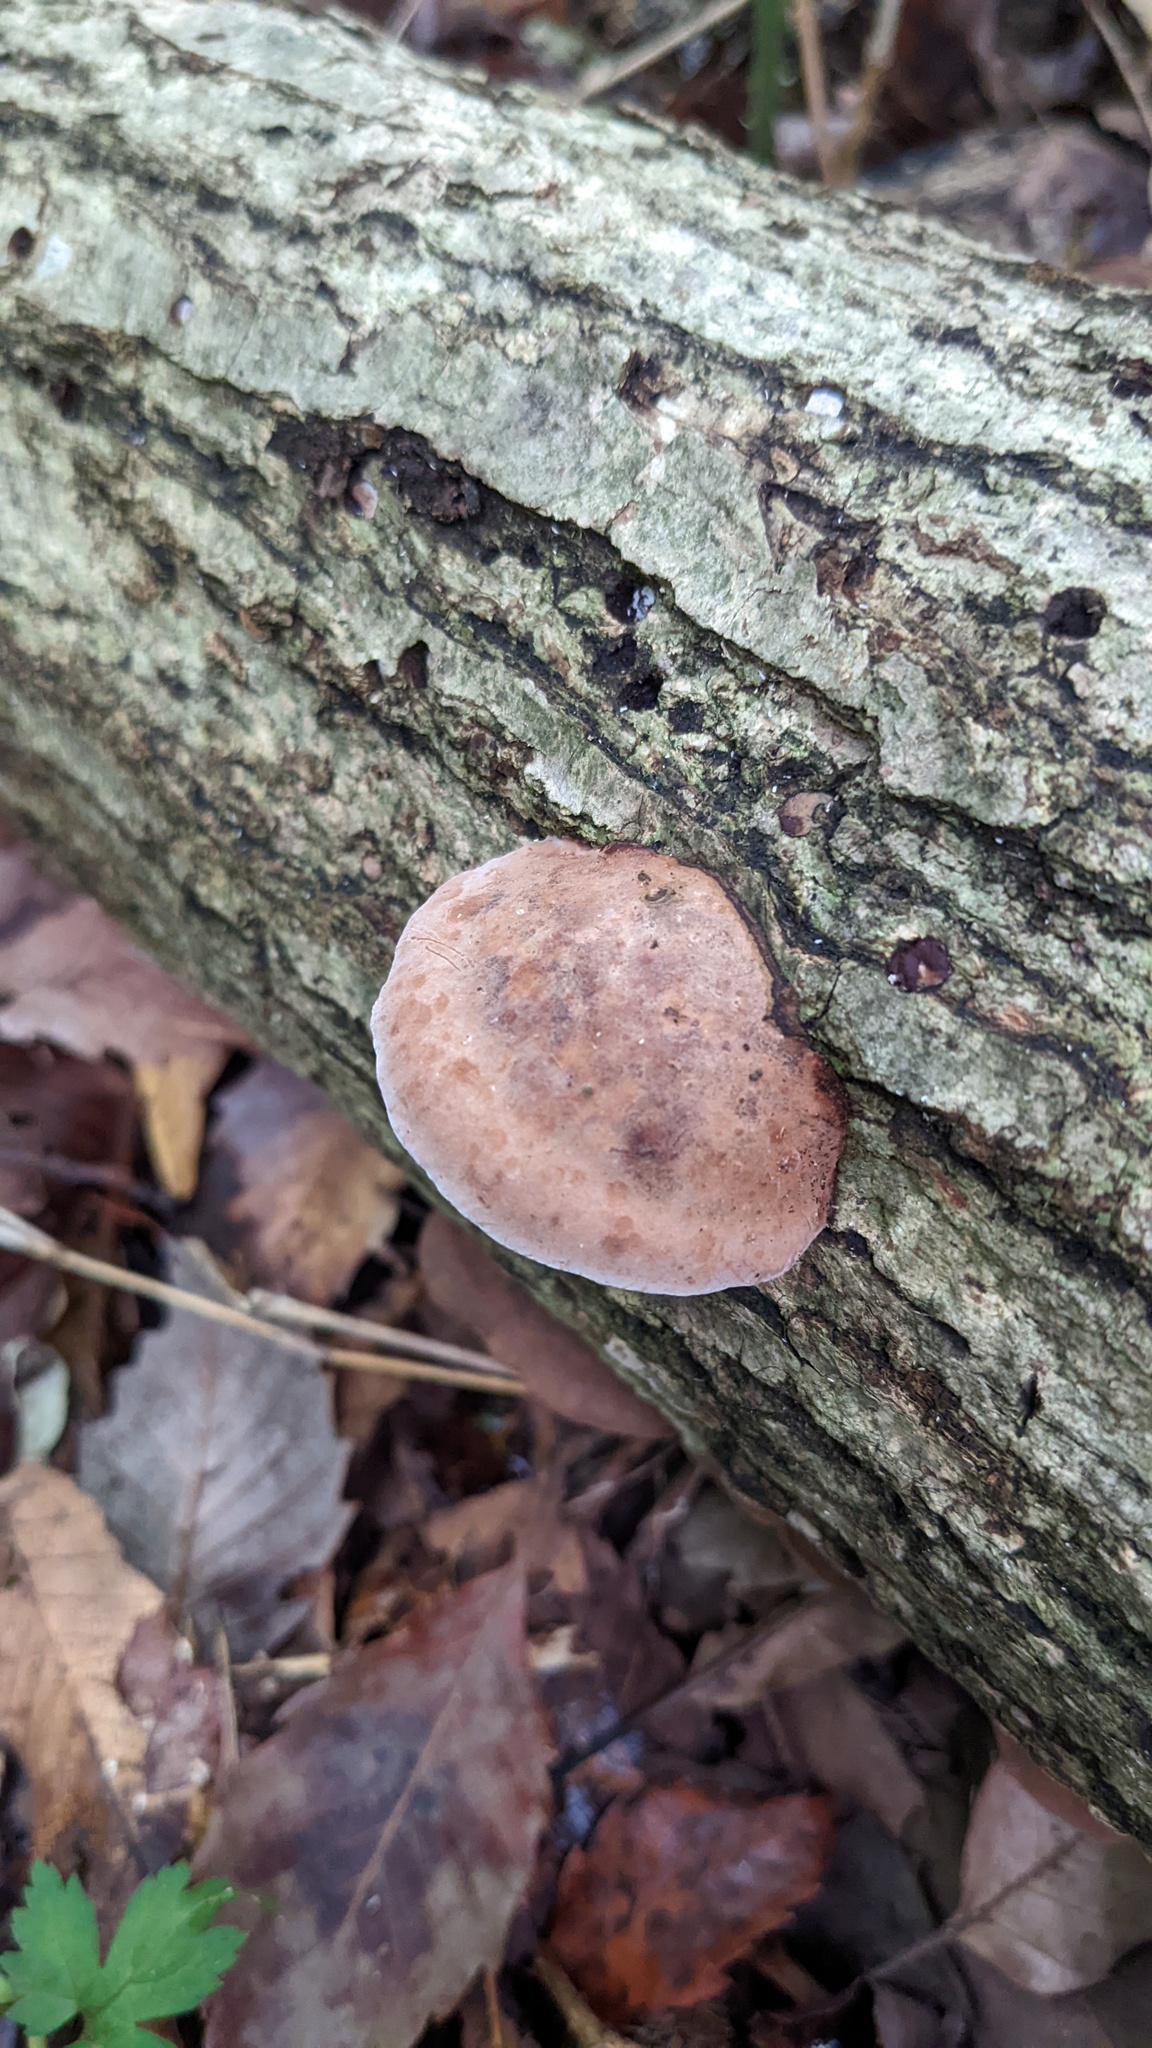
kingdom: Fungi
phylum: Basidiomycota
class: Agaricomycetes
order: Polyporales
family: Polyporaceae
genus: Abundisporus
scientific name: Abundisporus pubertatis
